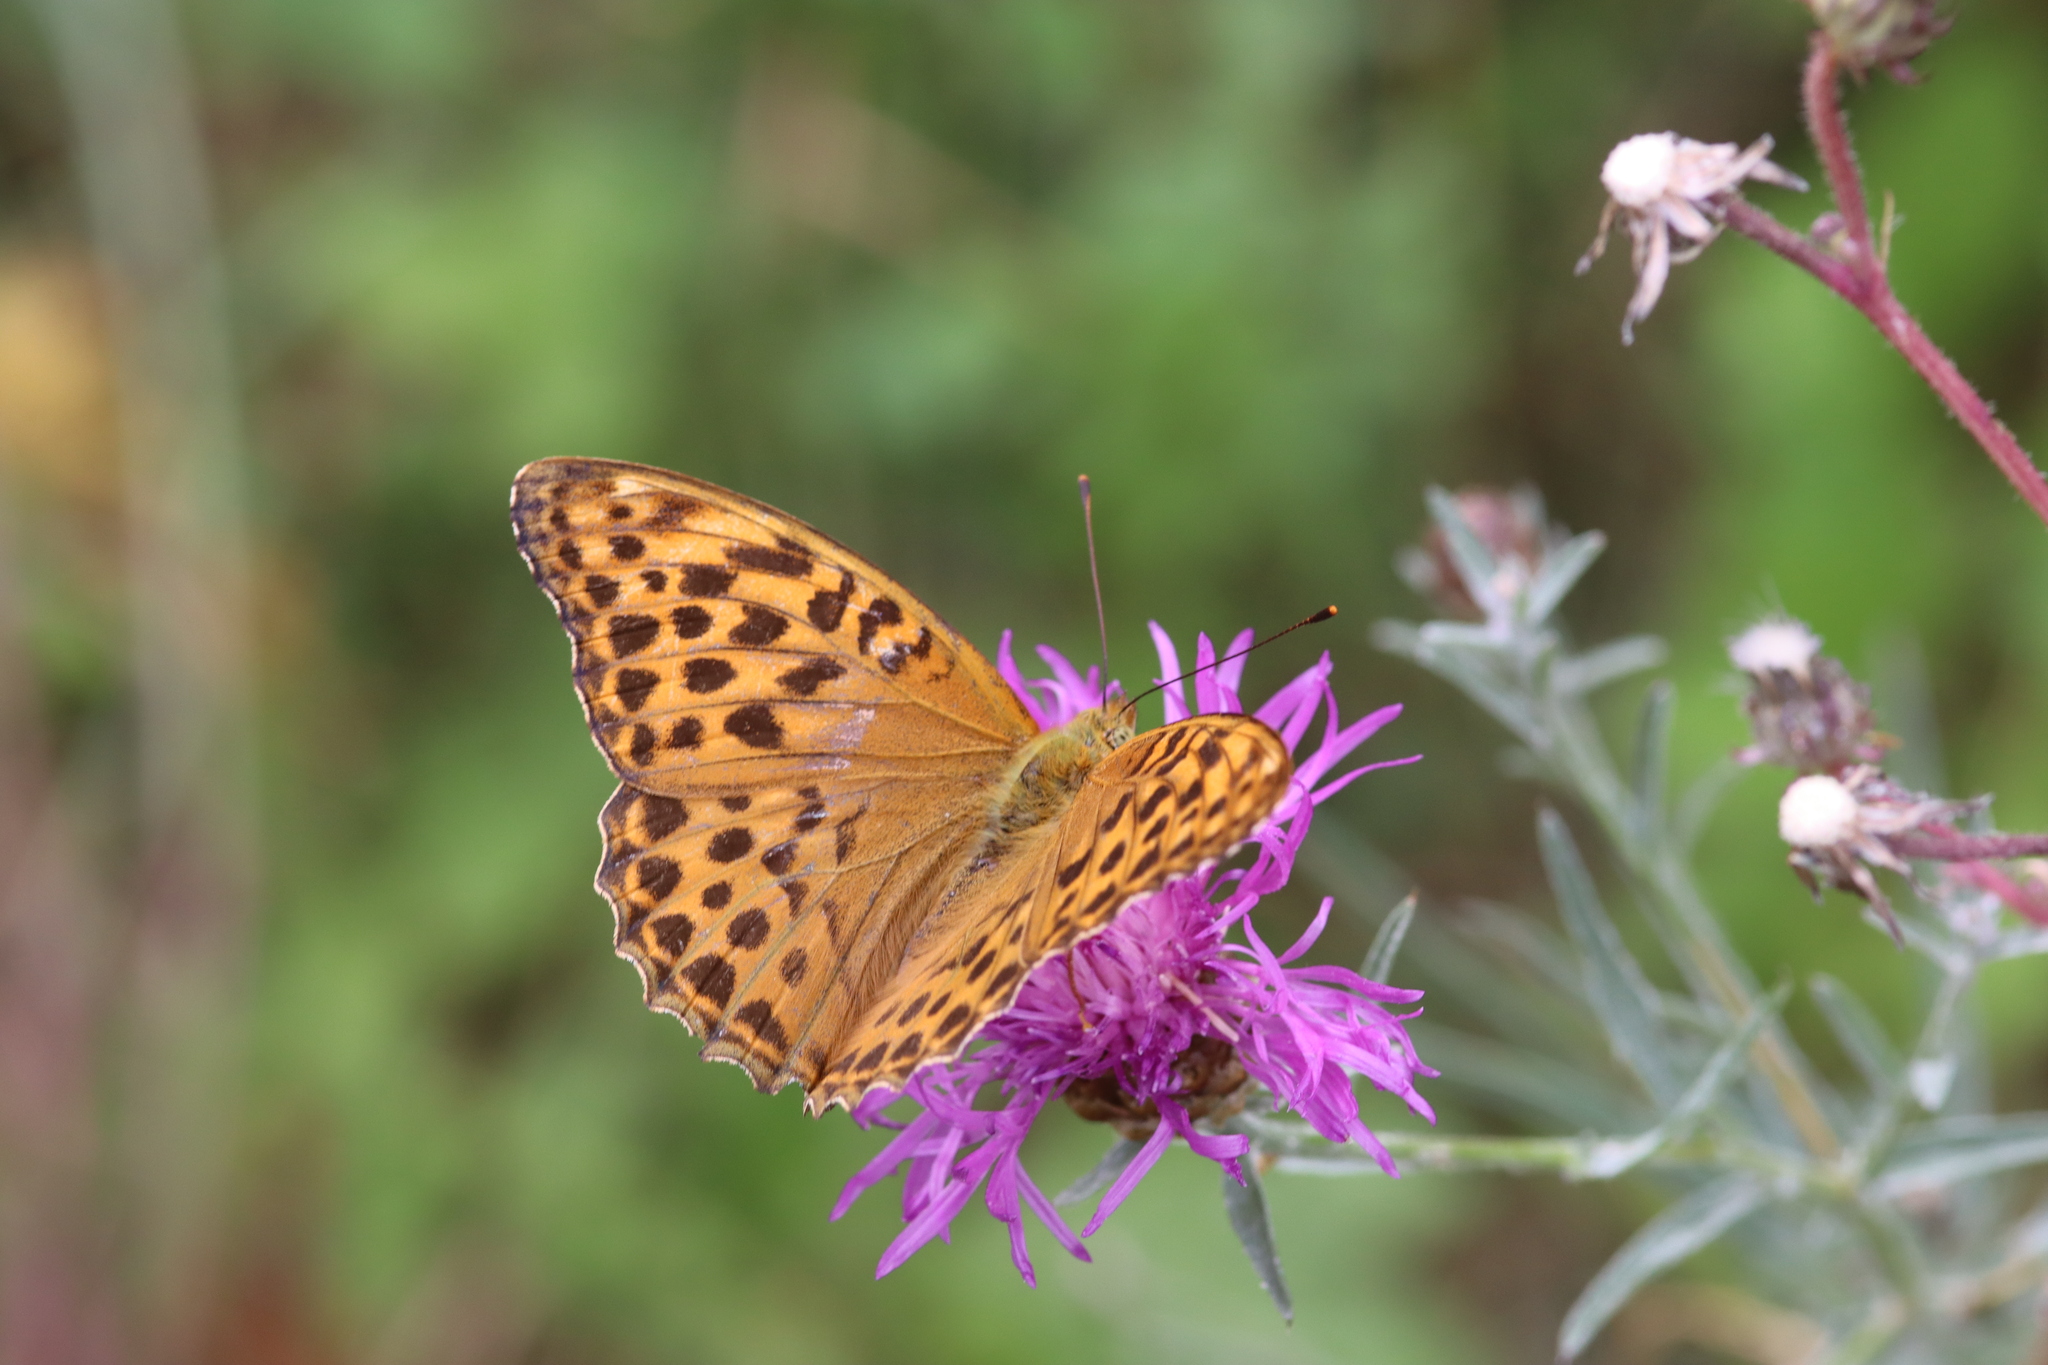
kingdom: Animalia
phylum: Arthropoda
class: Insecta
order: Lepidoptera
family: Nymphalidae
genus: Argynnis
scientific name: Argynnis paphia
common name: Silver-washed fritillary
